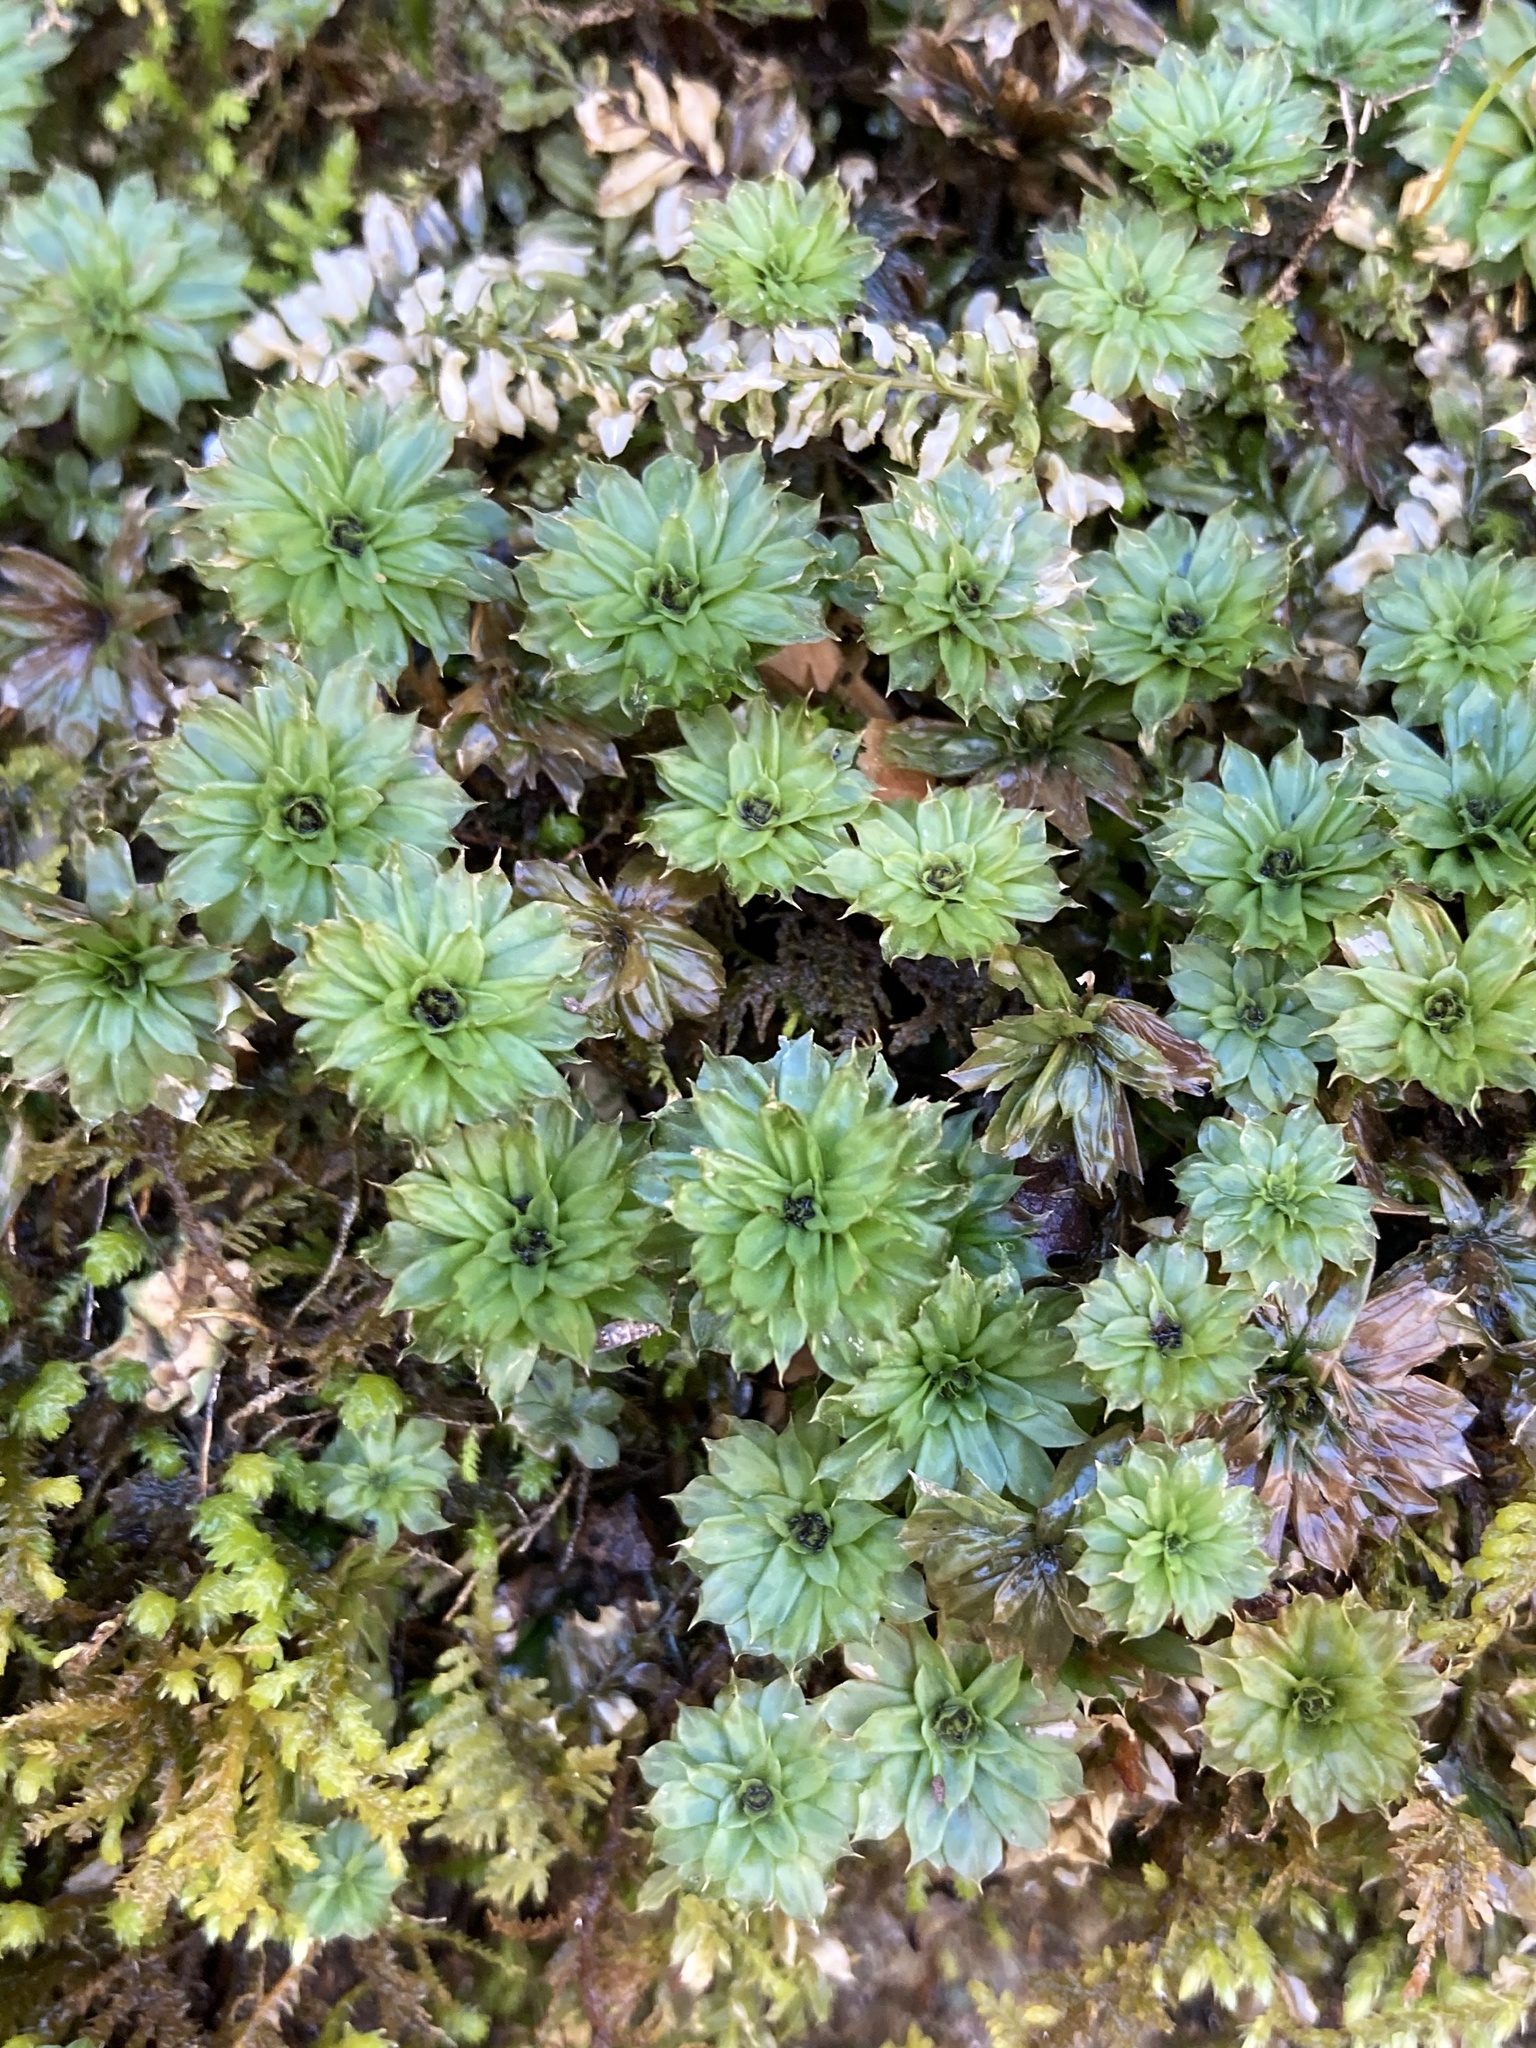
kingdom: Plantae
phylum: Bryophyta
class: Bryopsida
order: Bryales
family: Bryaceae
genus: Rhodobryum
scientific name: Rhodobryum ontariense
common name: Ontario rhodobryum moss
